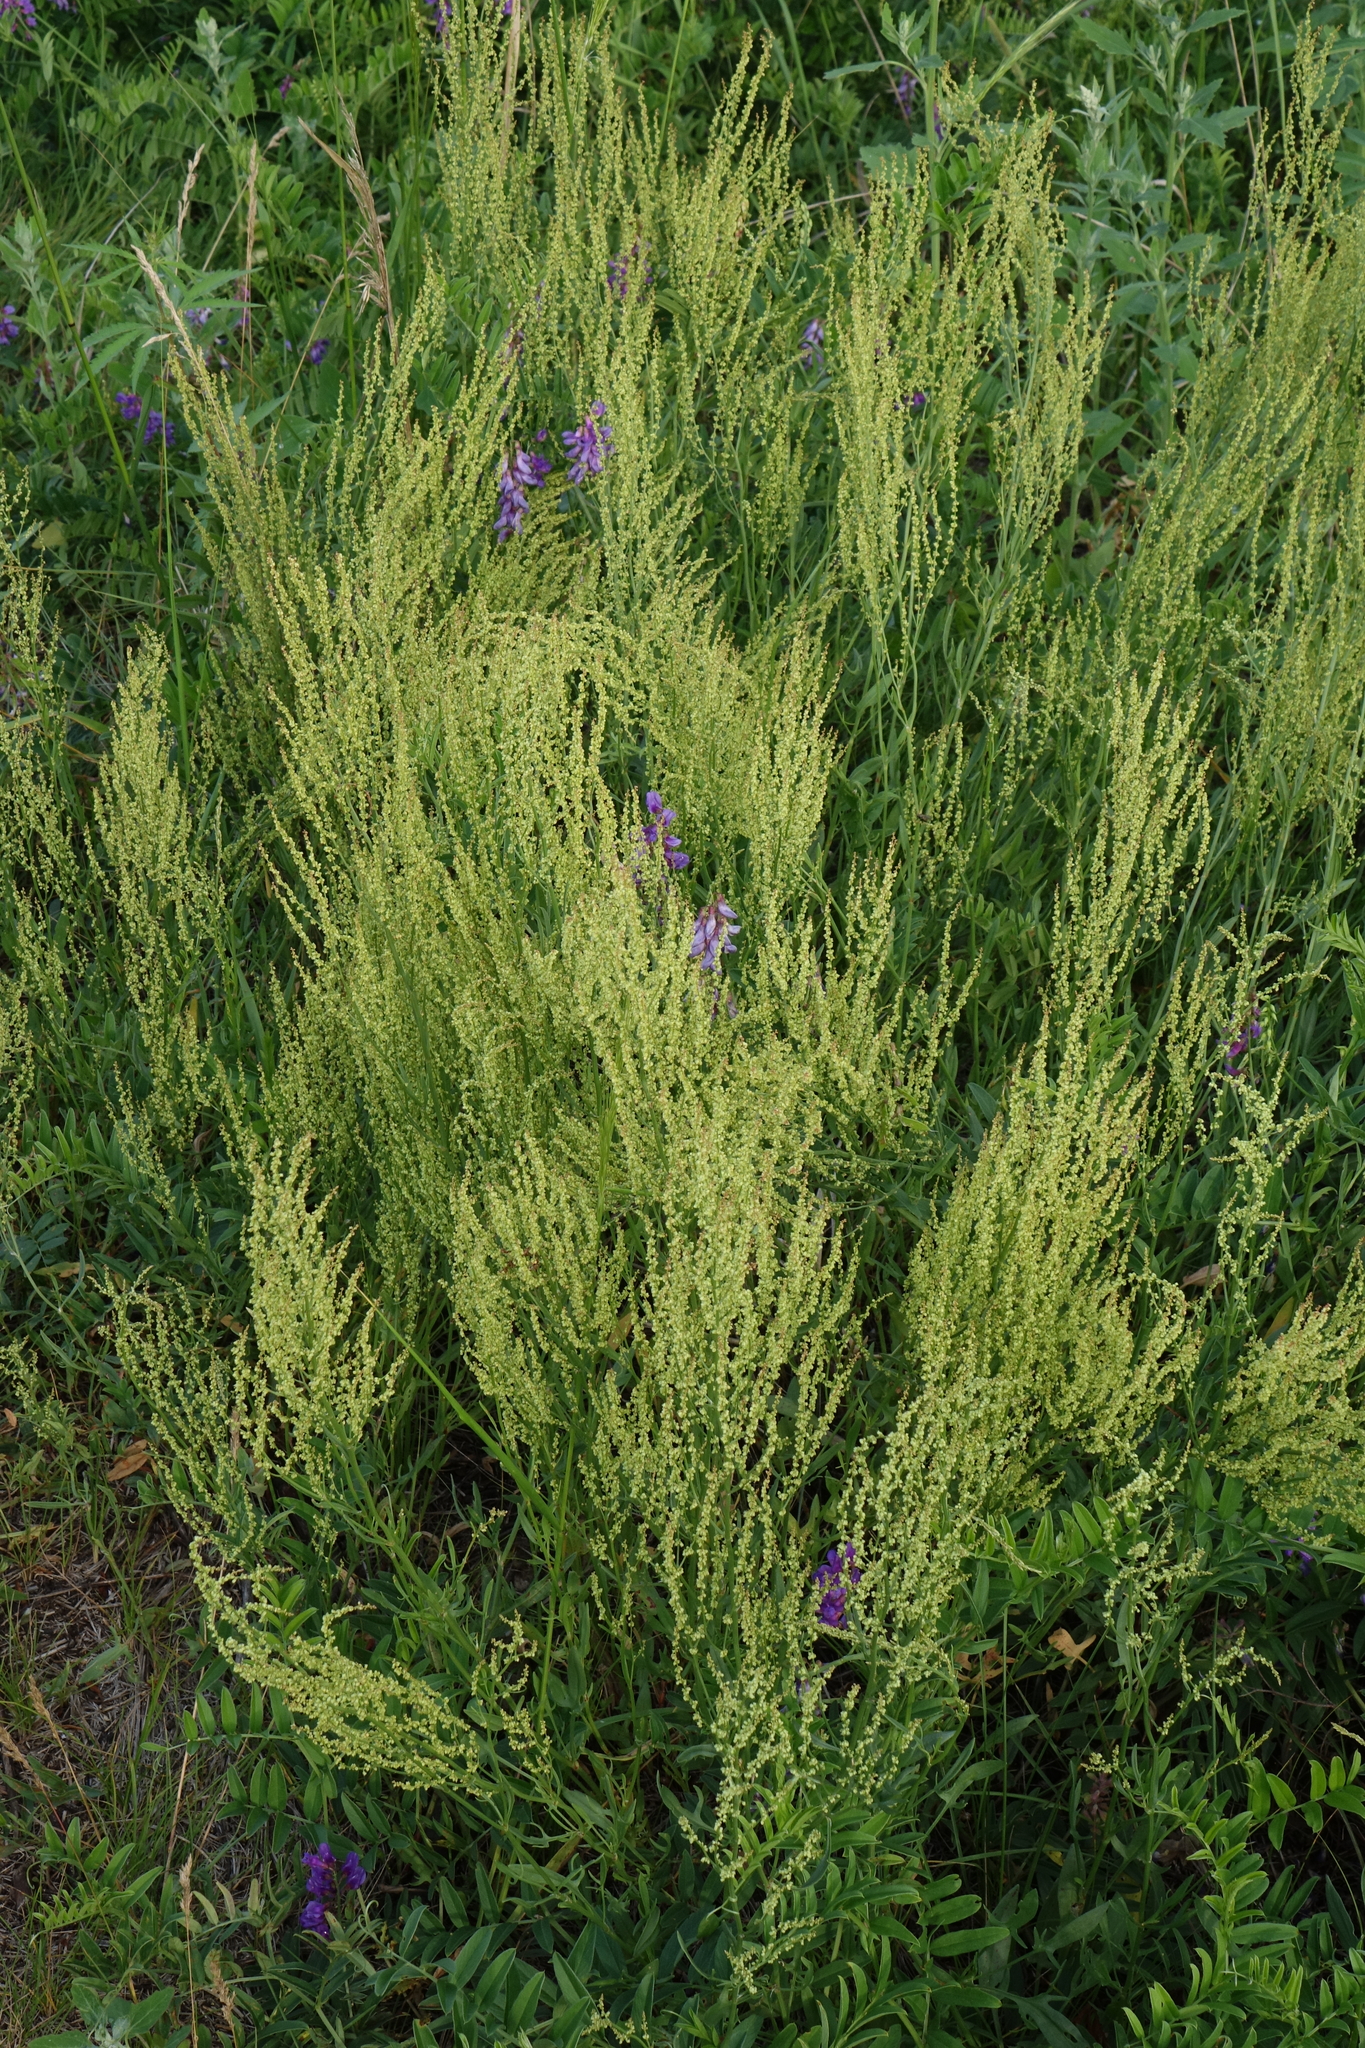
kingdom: Plantae
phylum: Tracheophyta
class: Magnoliopsida
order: Caryophyllales
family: Polygonaceae
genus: Rumex
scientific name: Rumex acetosella
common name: Common sheep sorrel
